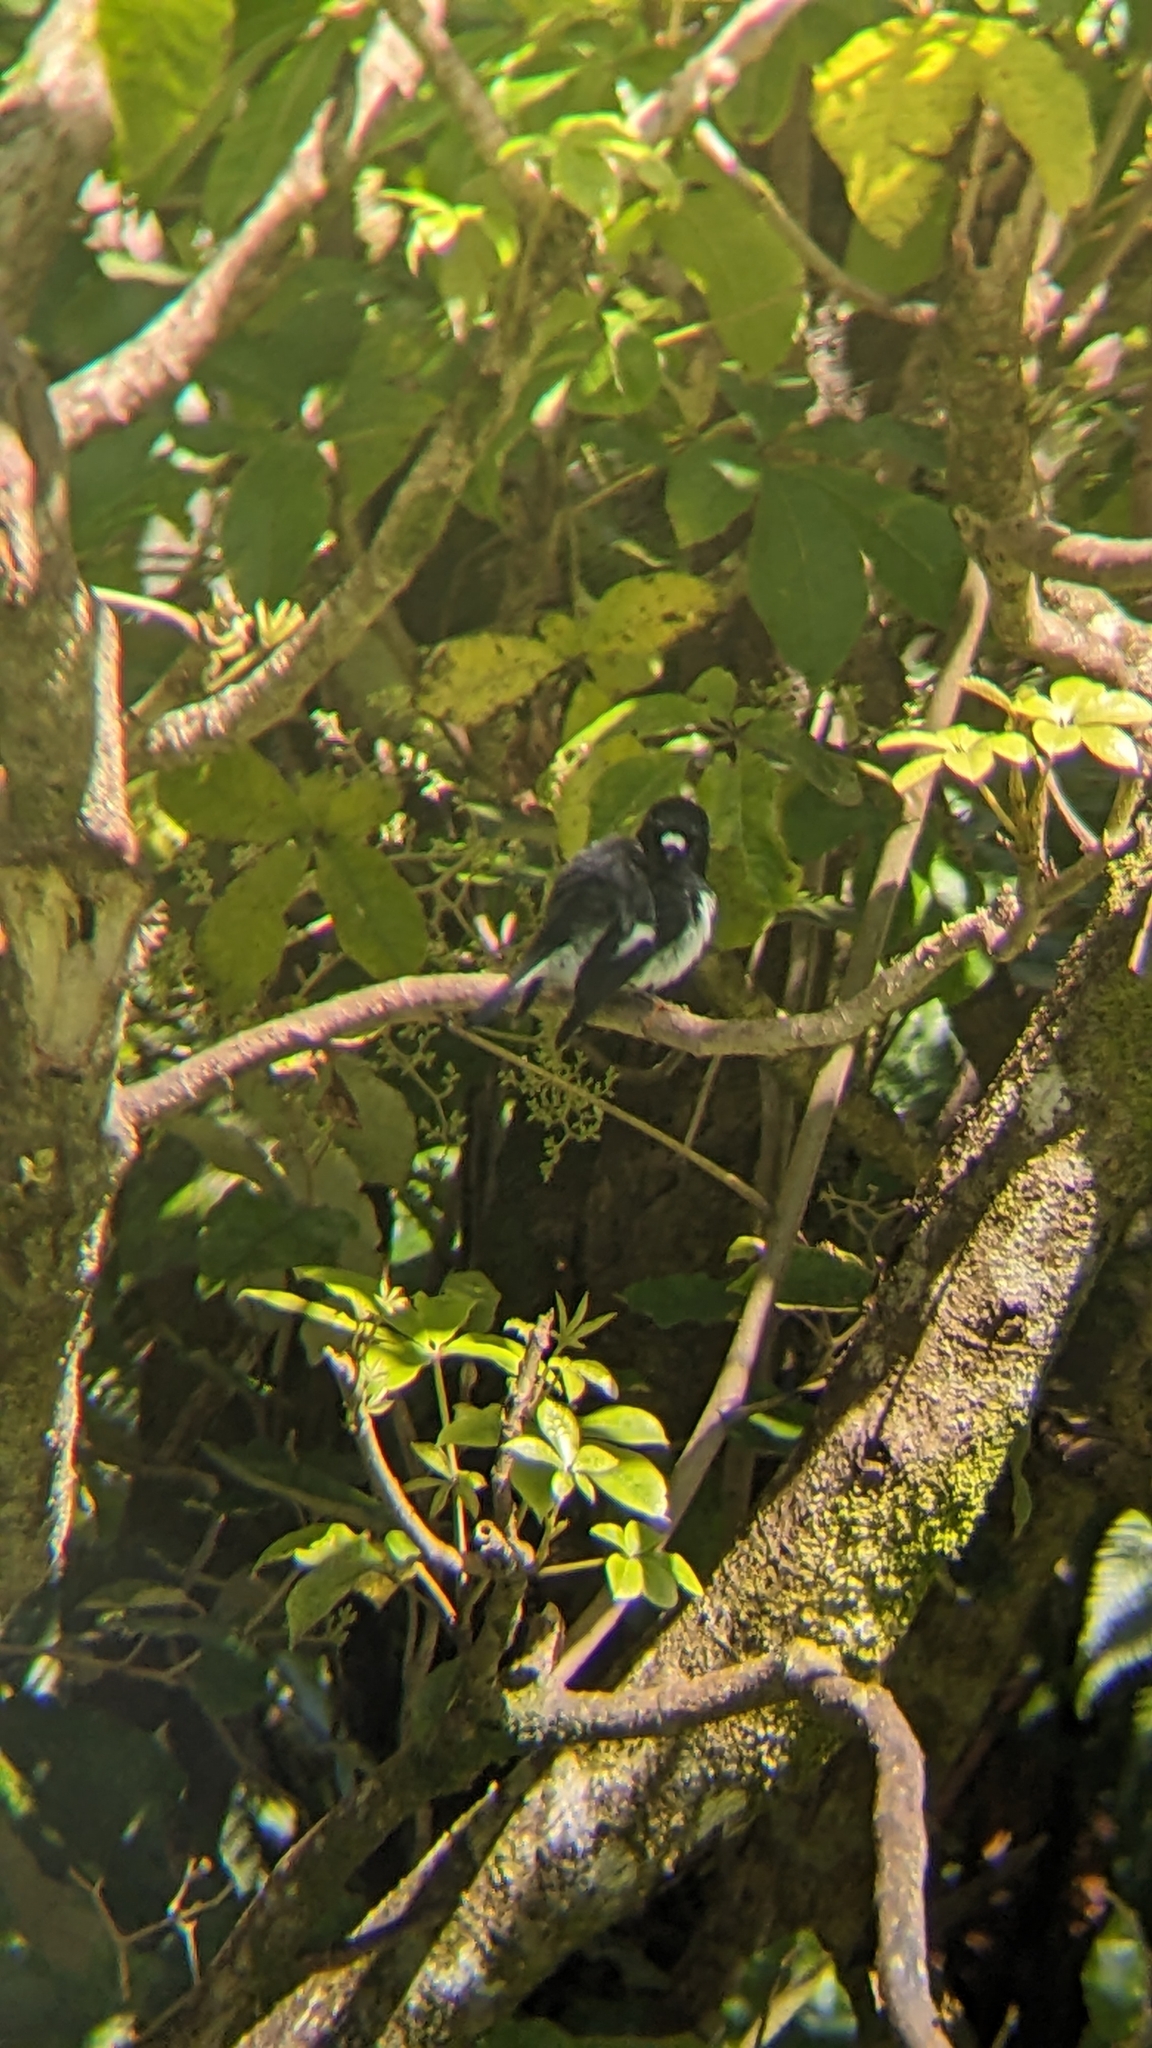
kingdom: Animalia
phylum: Chordata
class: Aves
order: Passeriformes
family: Petroicidae
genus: Petroica
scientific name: Petroica macrocephala
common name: Tomtit
